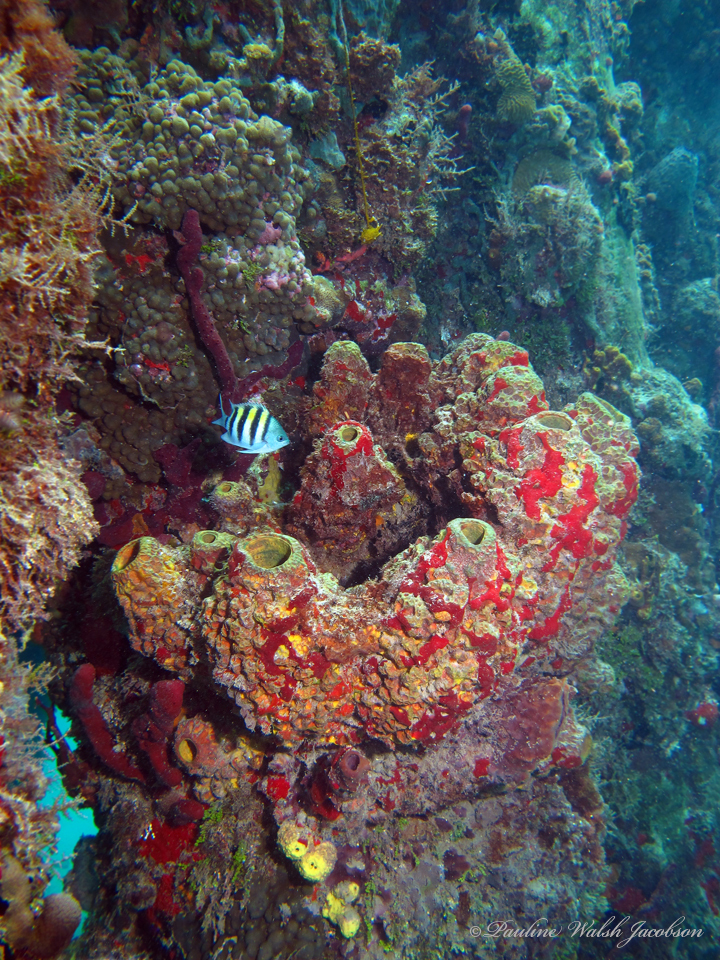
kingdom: Animalia
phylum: Chordata
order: Perciformes
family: Pomacentridae
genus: Abudefduf
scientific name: Abudefduf saxatilis
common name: Sergeant major
